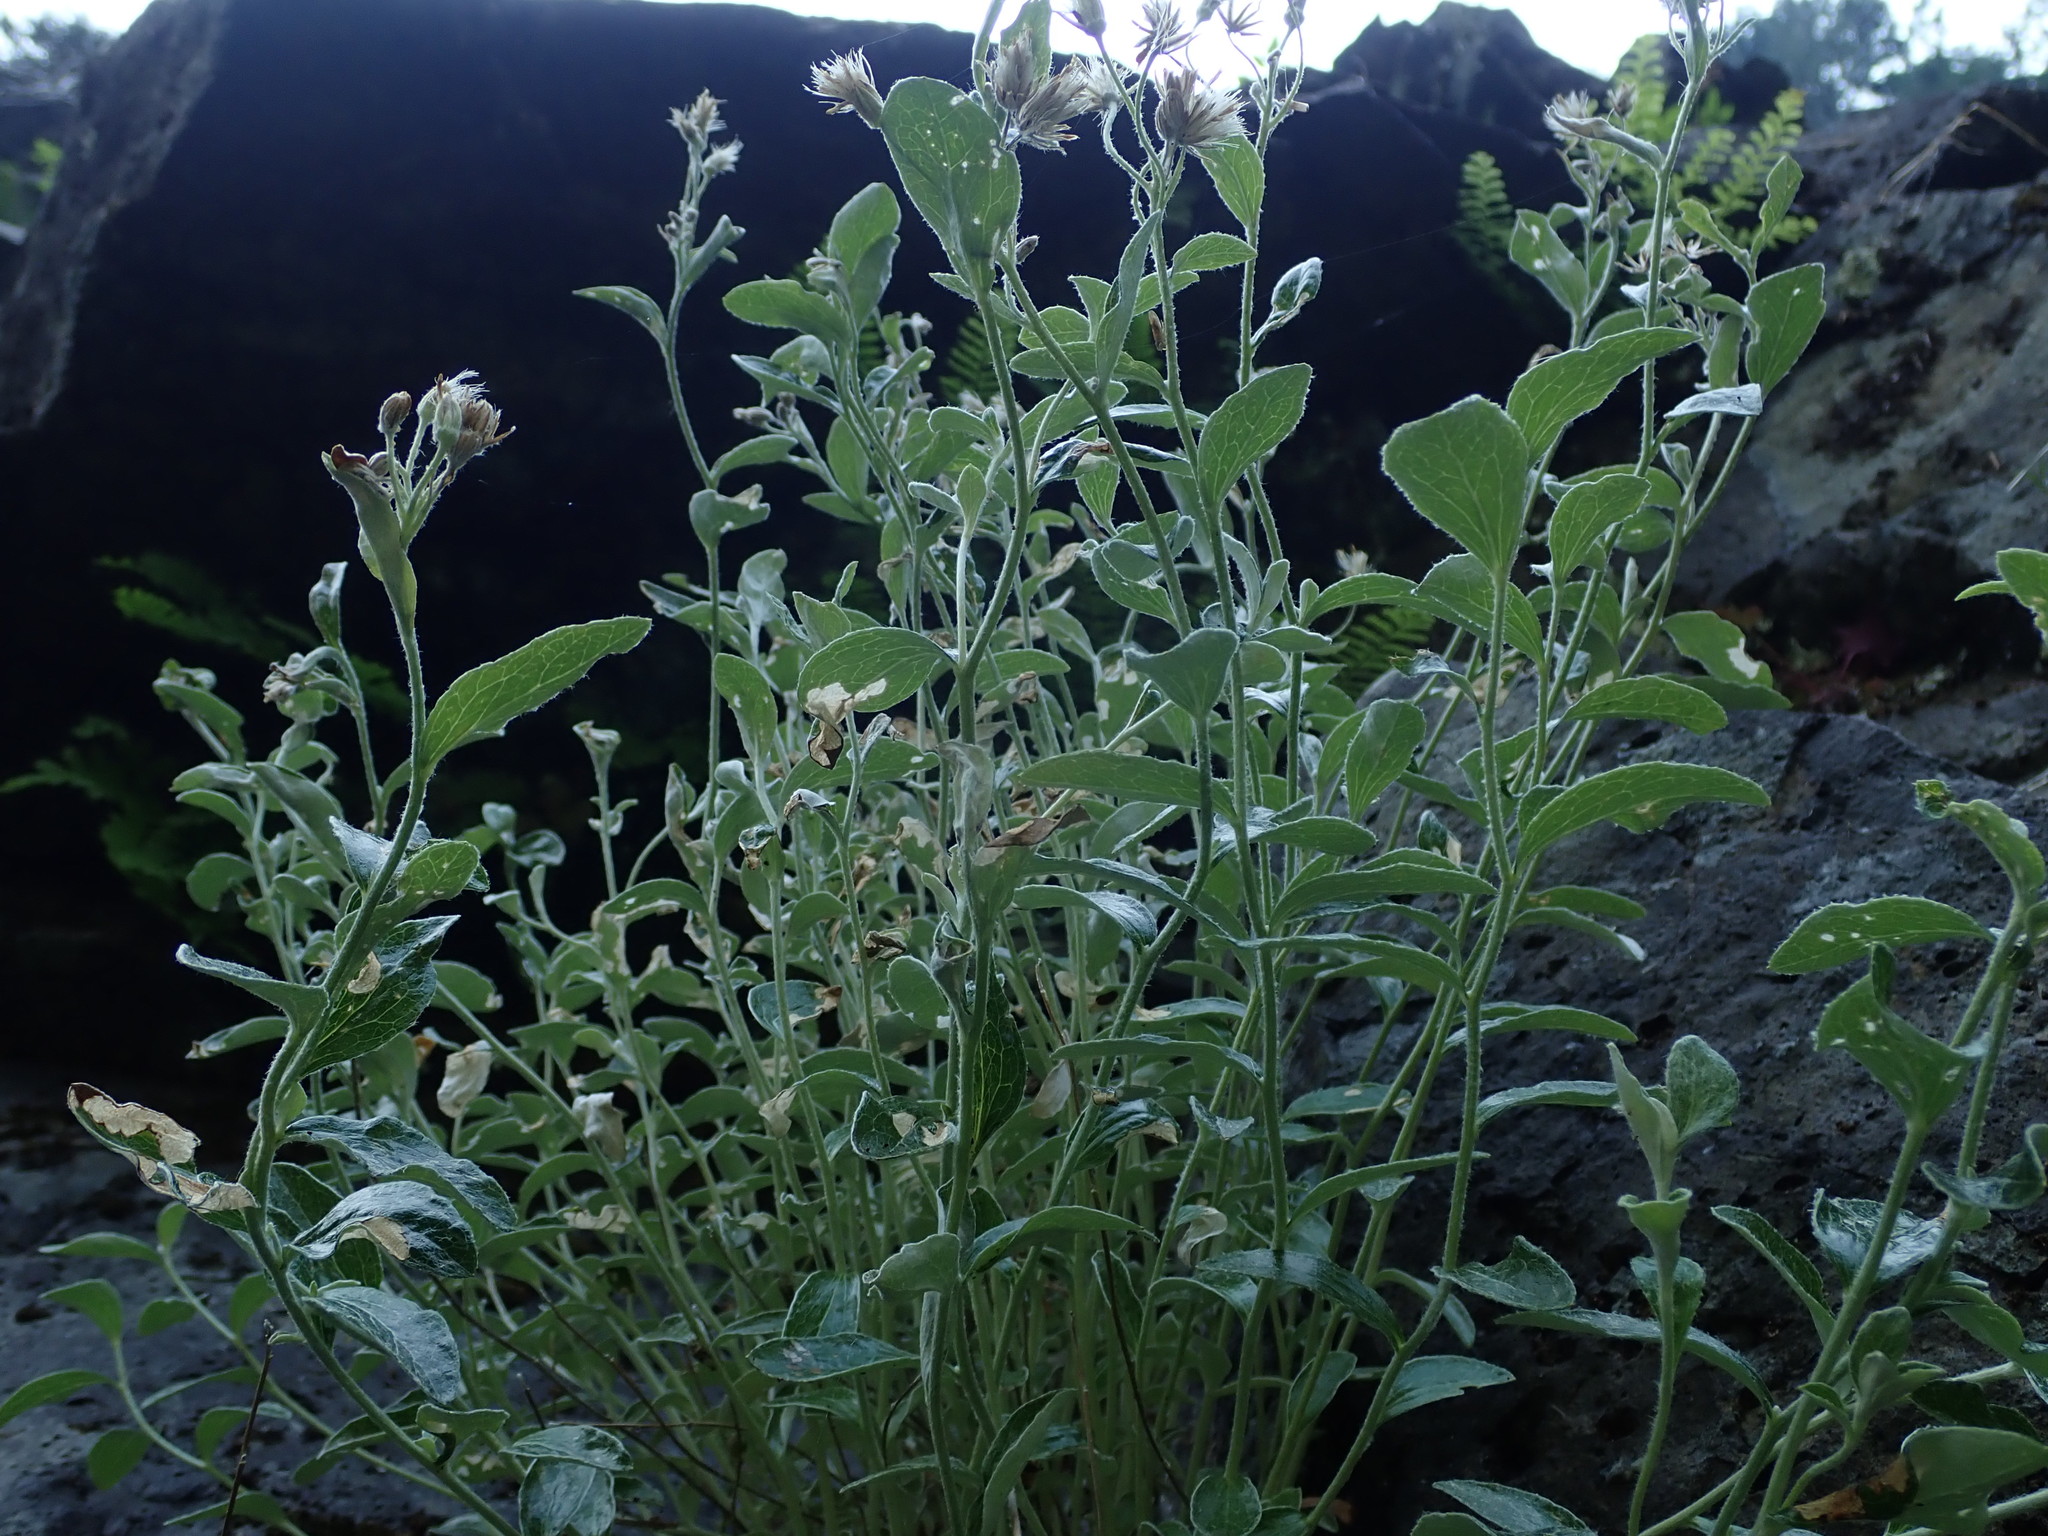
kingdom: Plantae
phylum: Tracheophyta
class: Magnoliopsida
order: Asterales
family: Asteraceae
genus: Luina
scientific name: Luina hypoleuca
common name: Little-leaved luina
